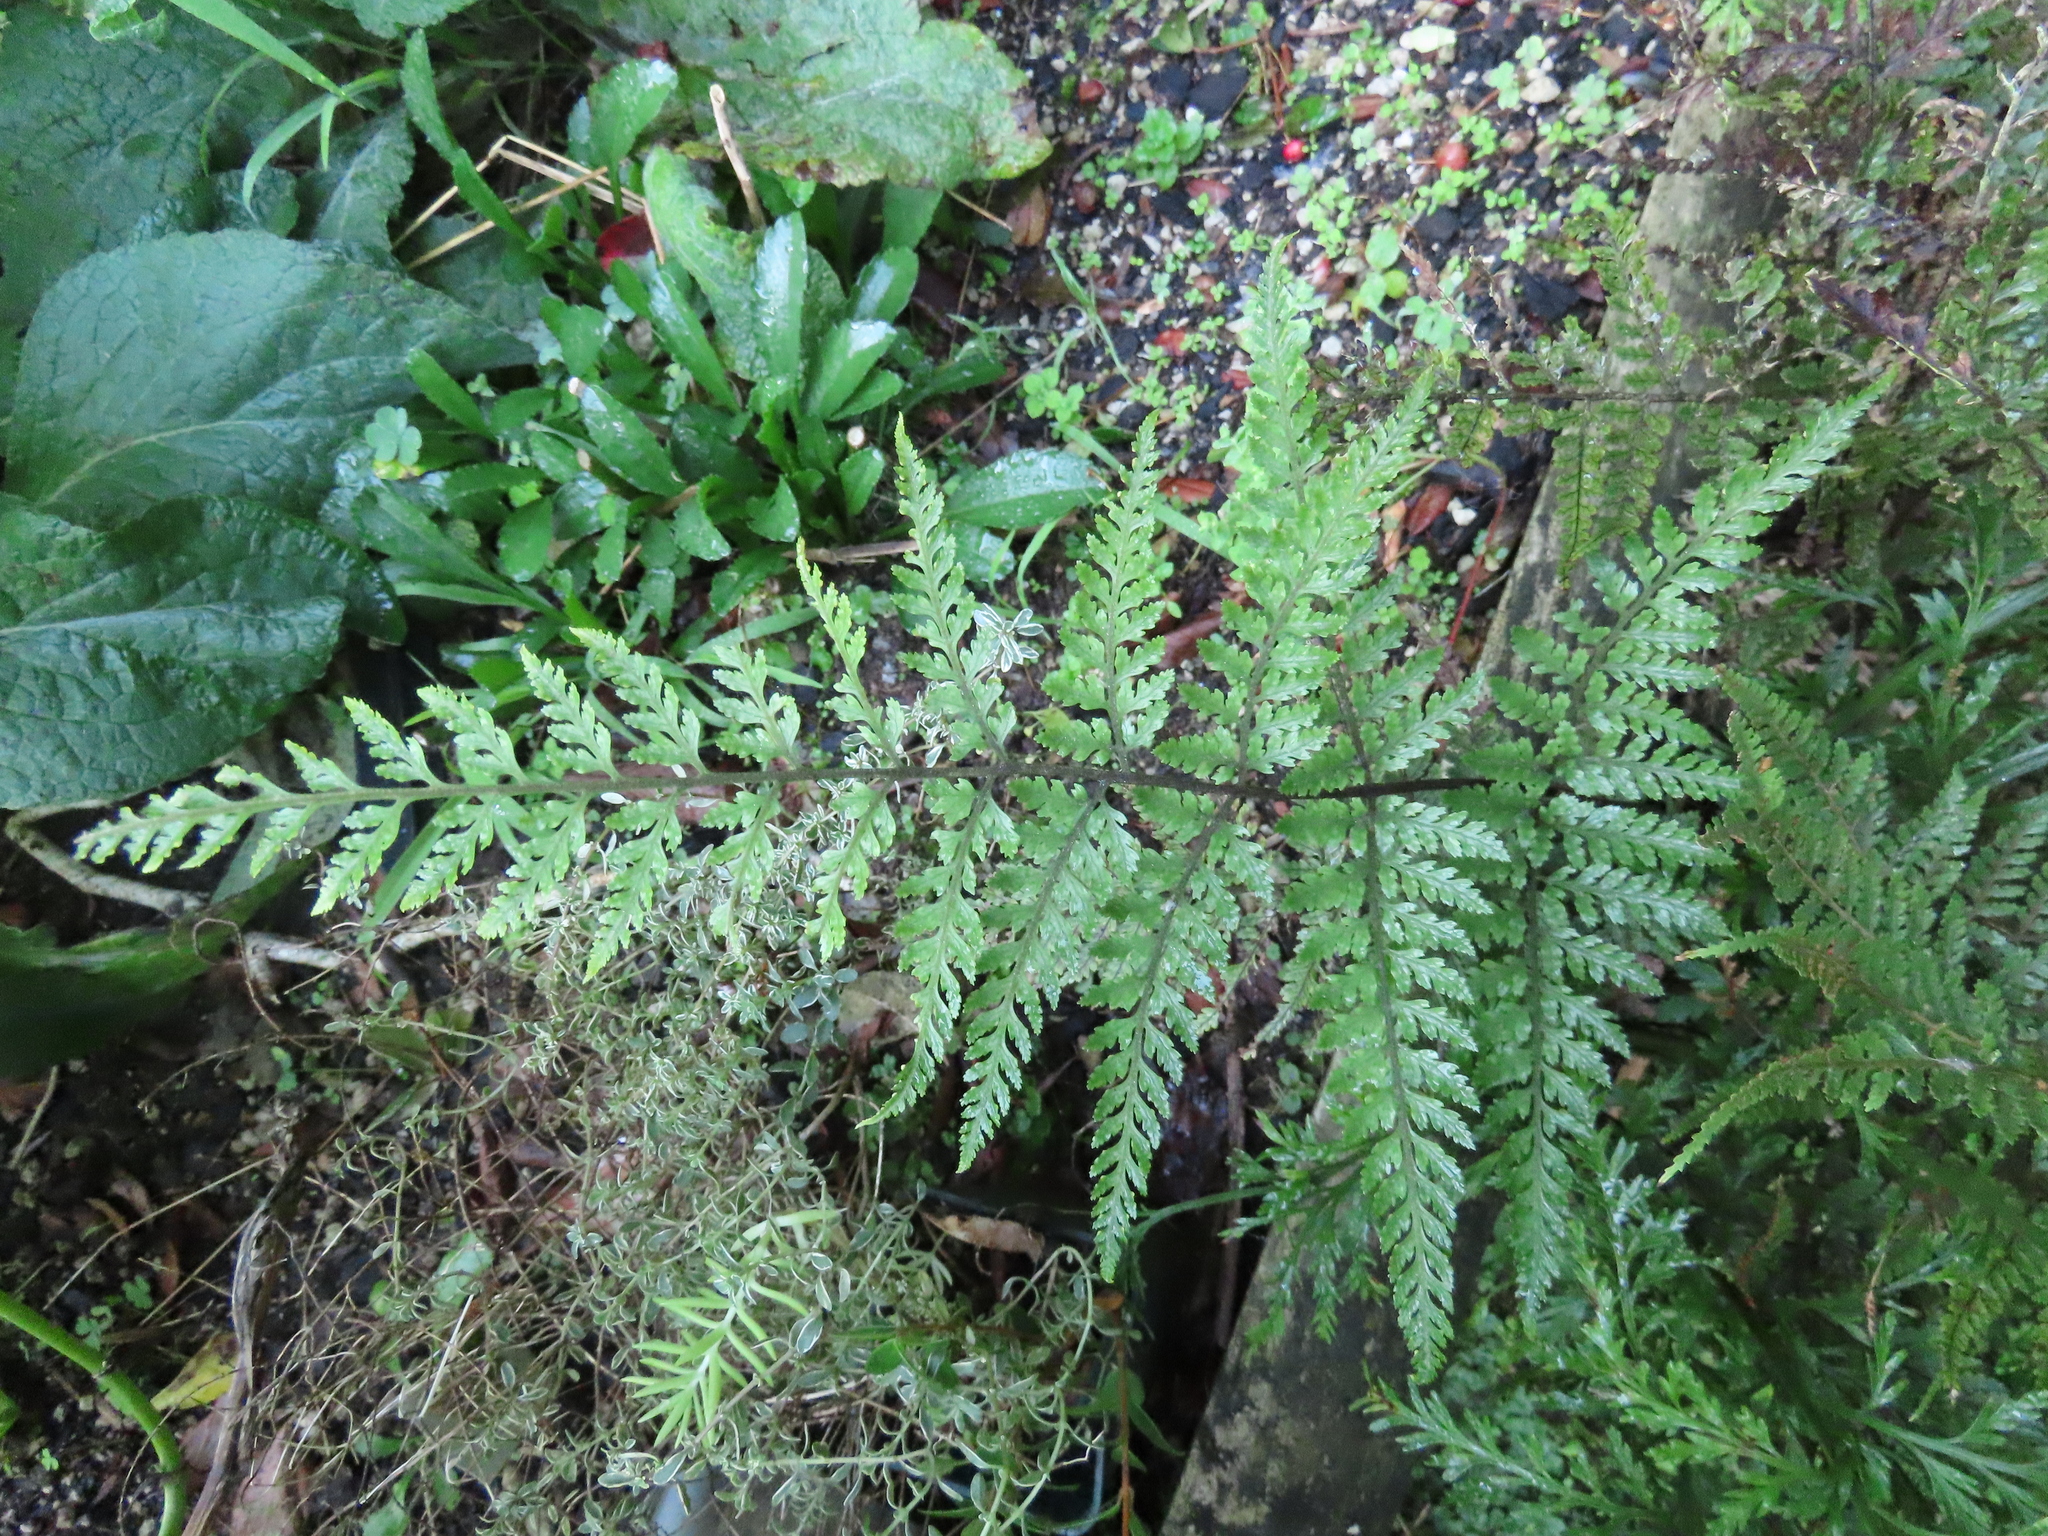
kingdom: Plantae
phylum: Tracheophyta
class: Polypodiopsida
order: Polypodiales
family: Dryopteridaceae
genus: Parapolystichum
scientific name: Parapolystichum glabellum
